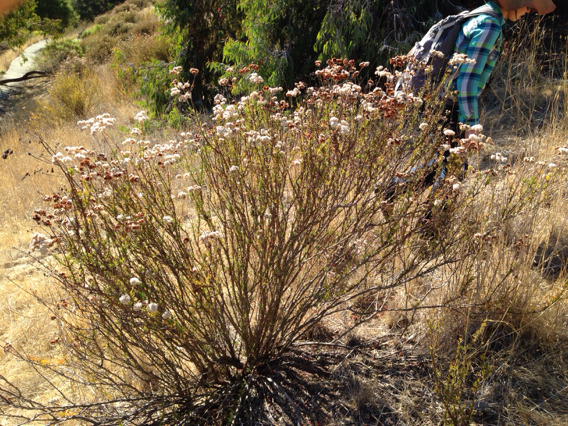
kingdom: Plantae
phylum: Tracheophyta
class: Magnoliopsida
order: Caryophyllales
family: Polygonaceae
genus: Eriogonum
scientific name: Eriogonum fasciculatum
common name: California wild buckwheat
